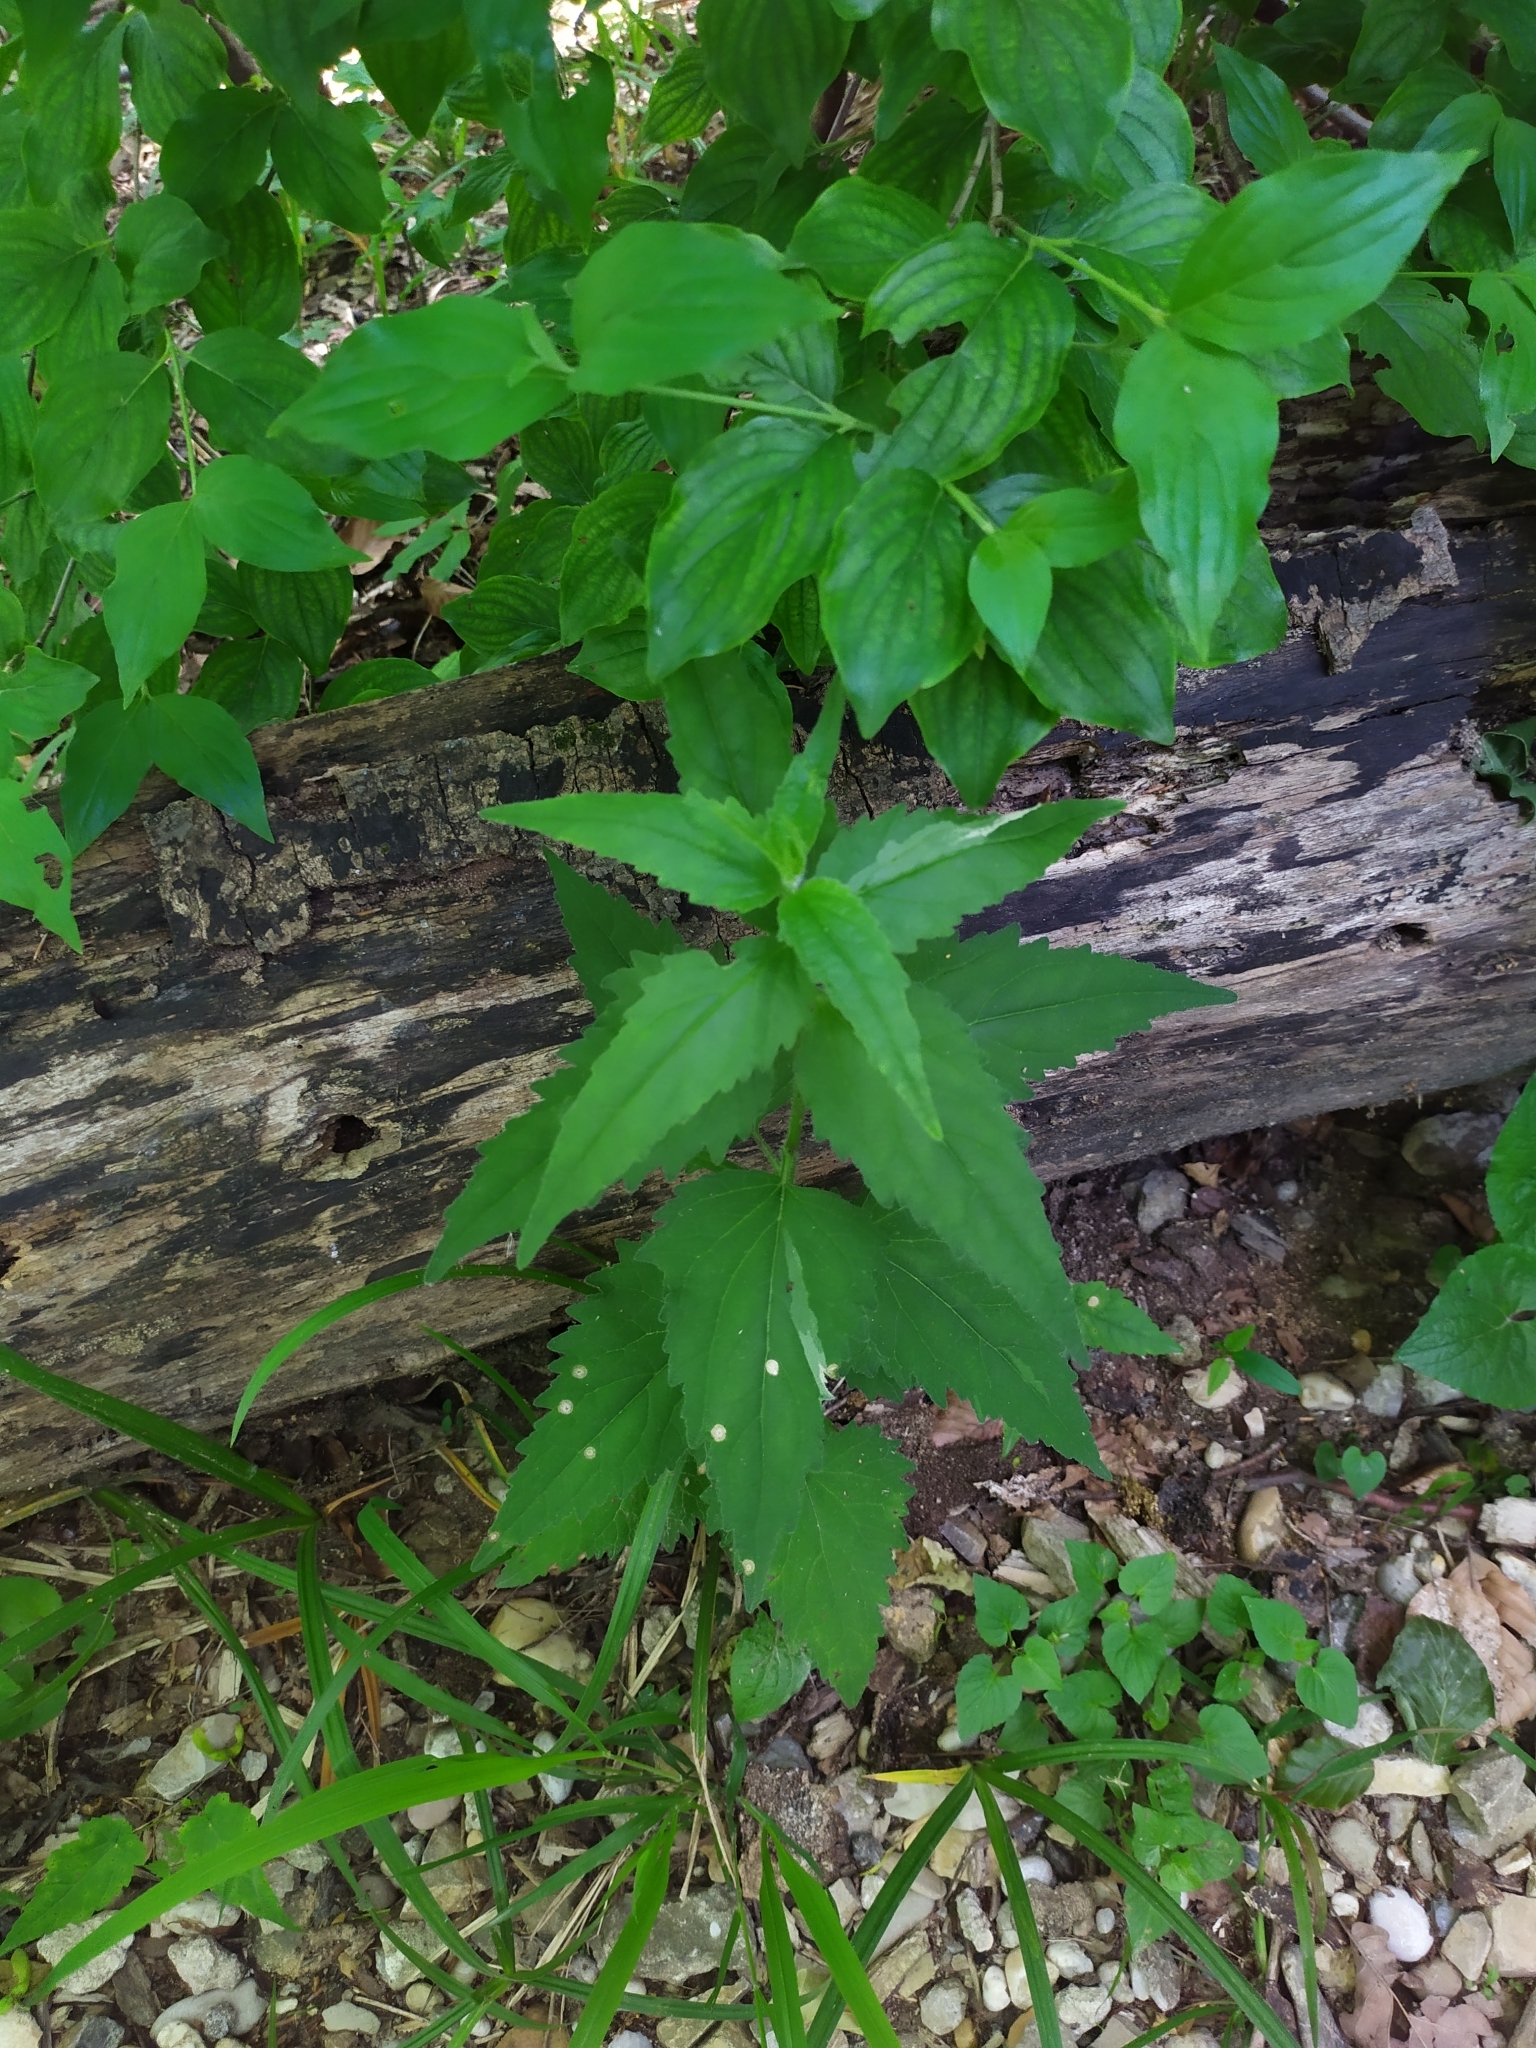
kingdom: Plantae
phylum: Tracheophyta
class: Magnoliopsida
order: Asterales
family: Campanulaceae
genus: Campanula
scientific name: Campanula trachelium
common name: Nettle-leaved bellflower
